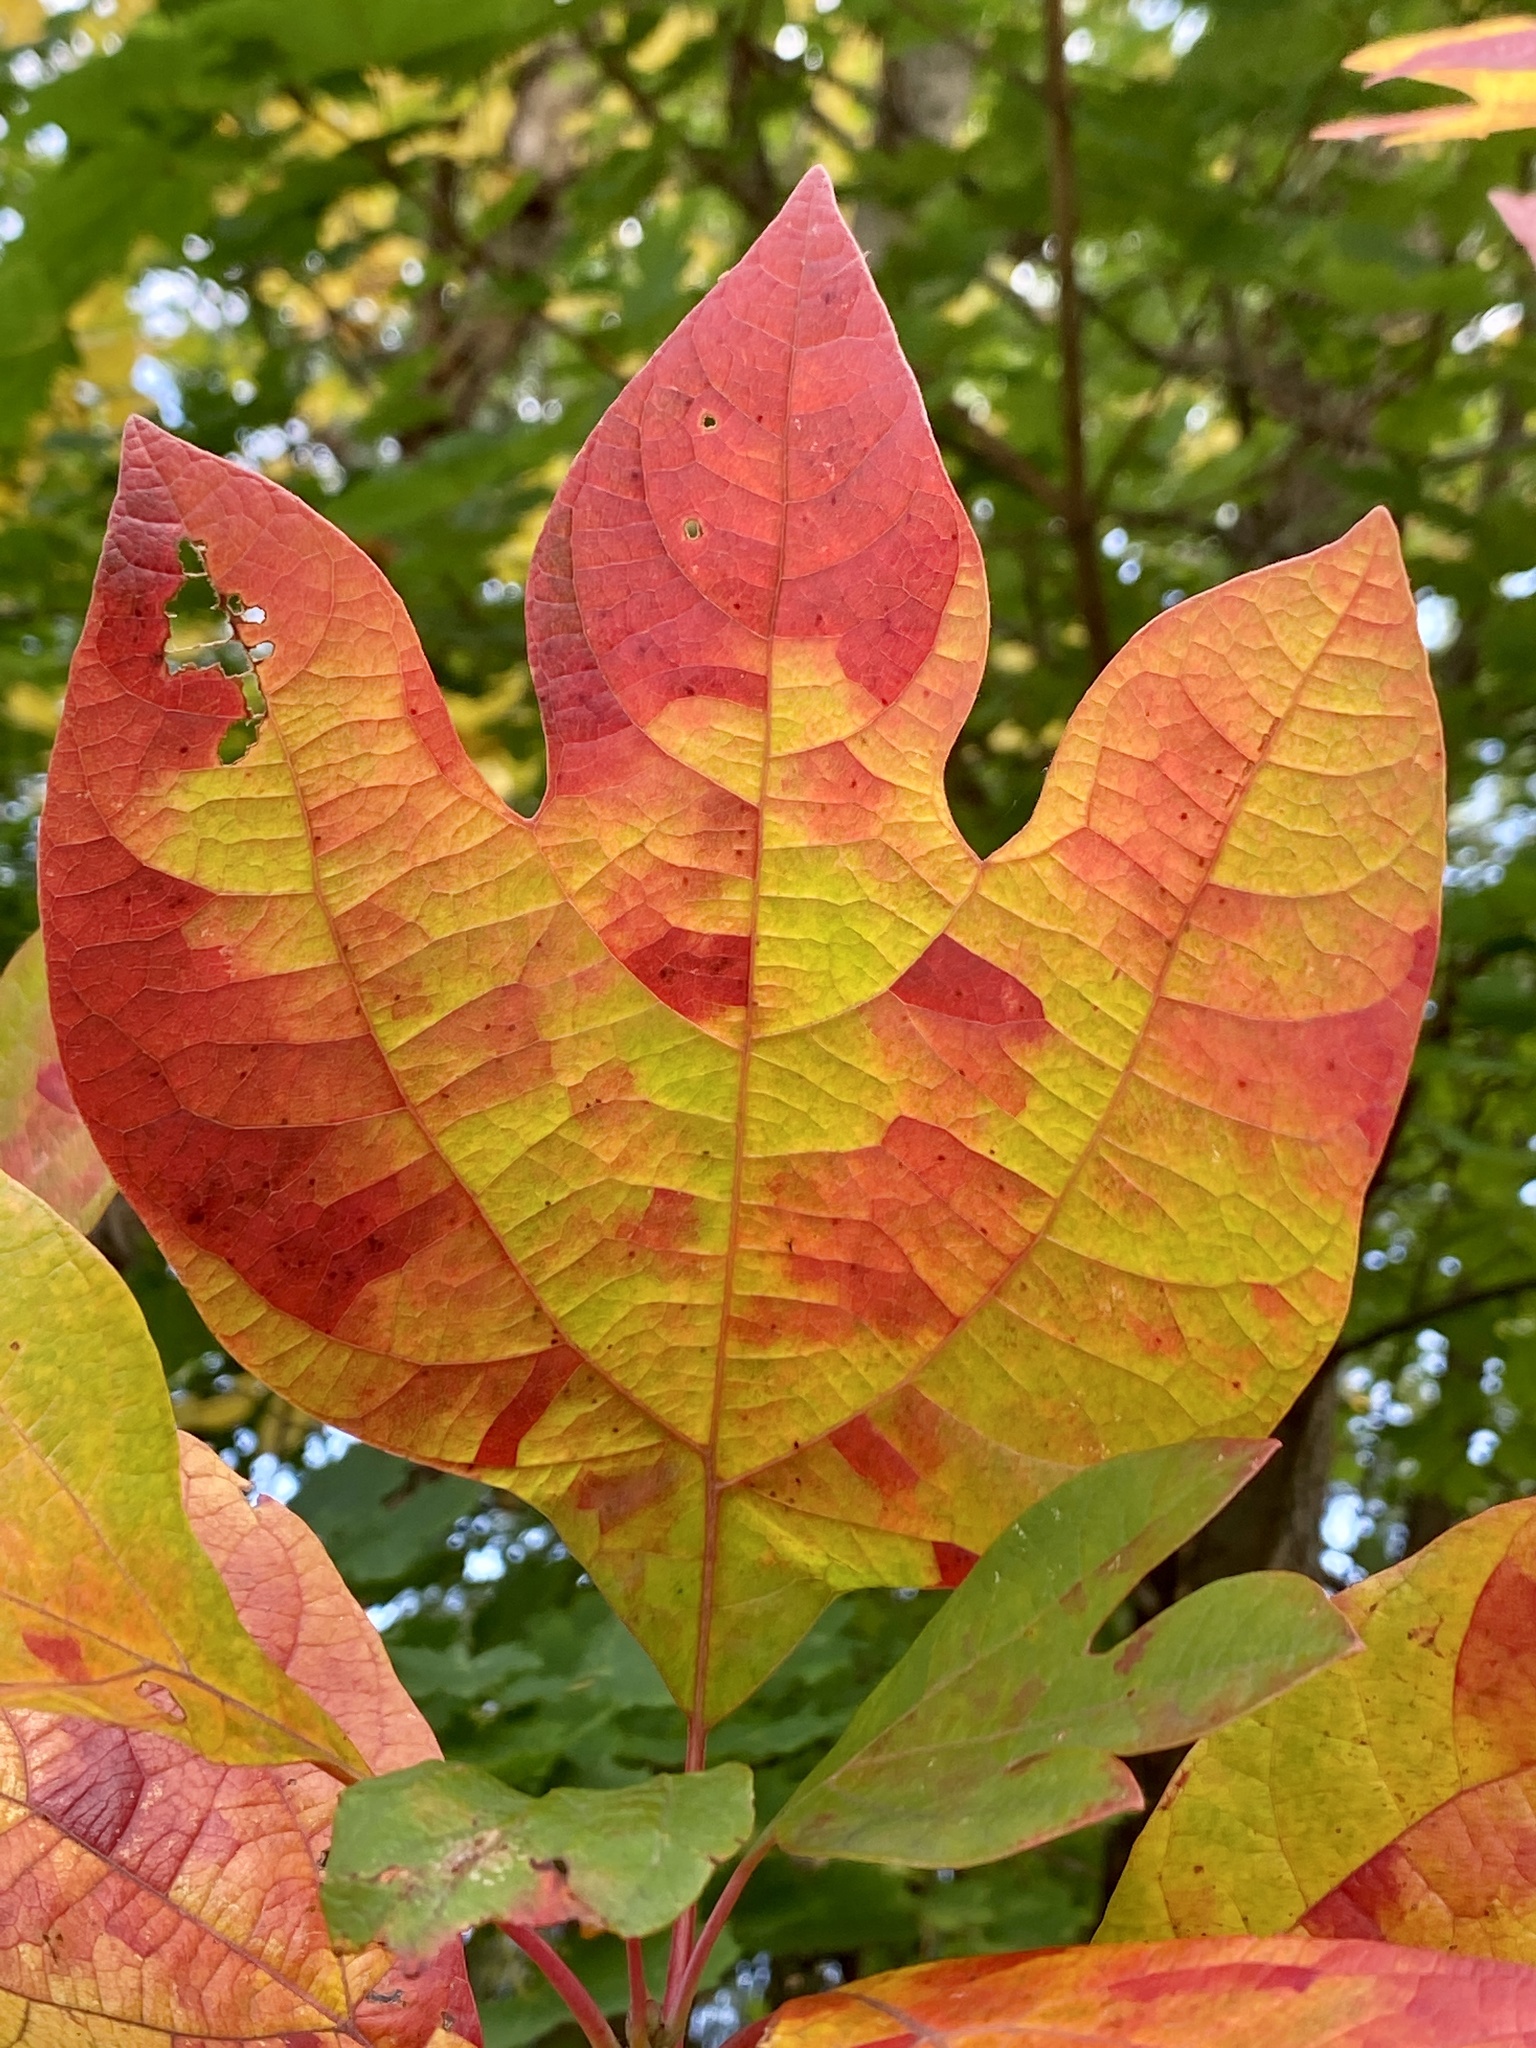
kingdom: Plantae
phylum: Tracheophyta
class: Magnoliopsida
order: Laurales
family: Lauraceae
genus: Sassafras
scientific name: Sassafras albidum
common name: Sassafras
